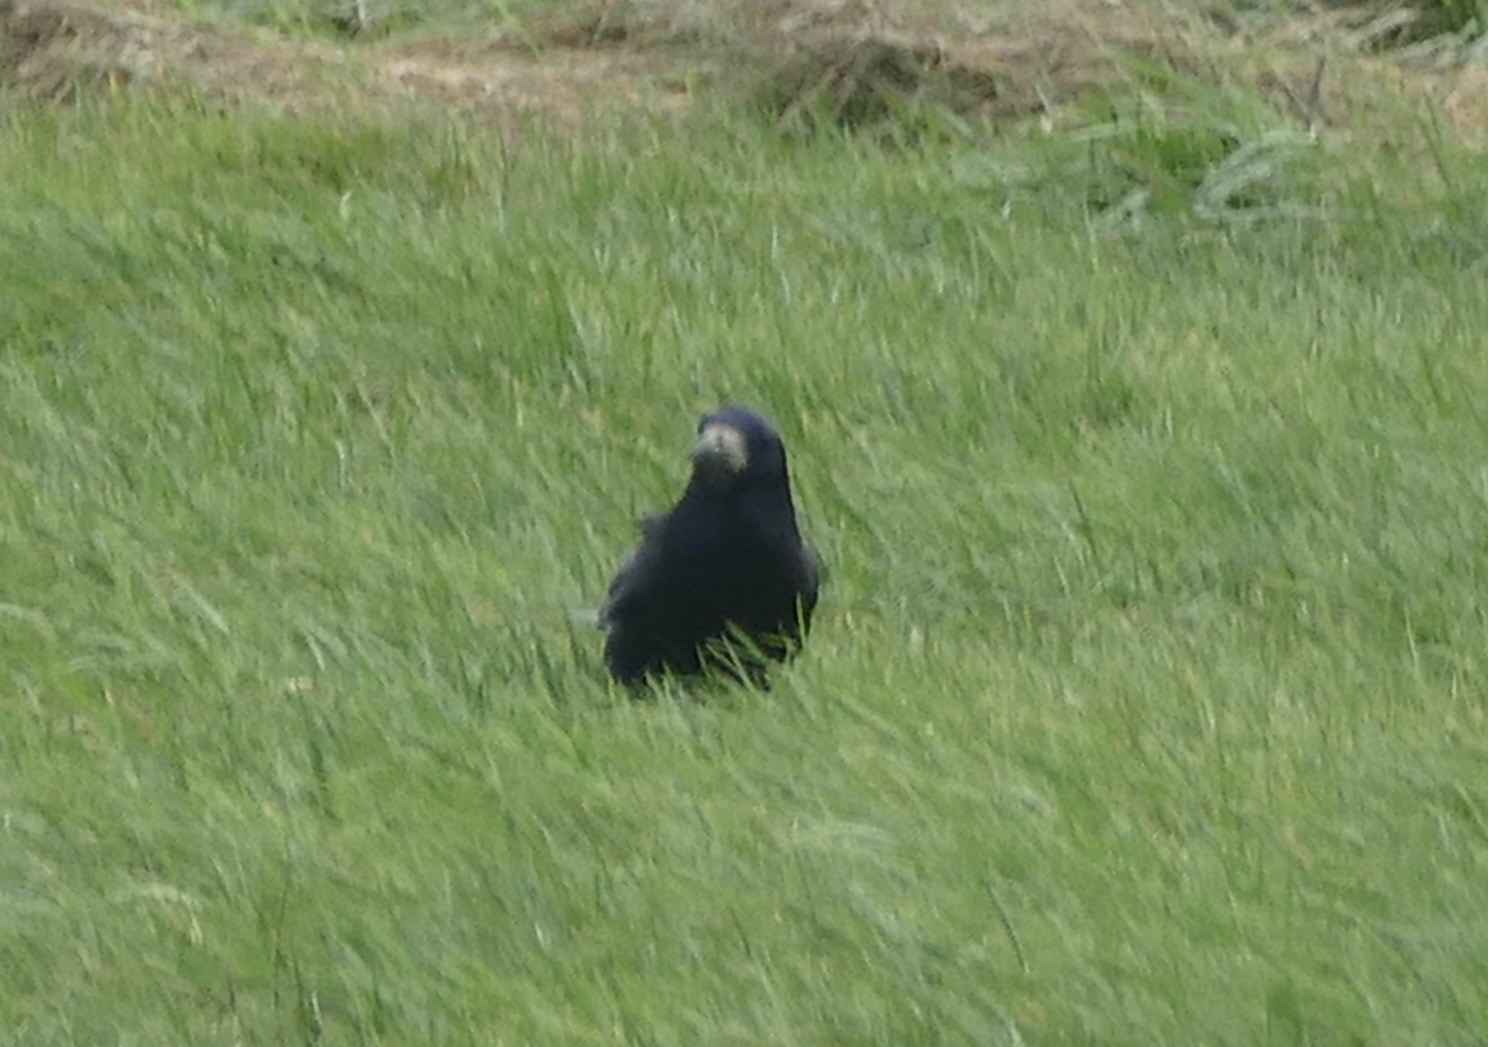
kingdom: Animalia
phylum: Chordata
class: Aves
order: Passeriformes
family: Corvidae
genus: Corvus
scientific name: Corvus frugilegus
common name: Rook
